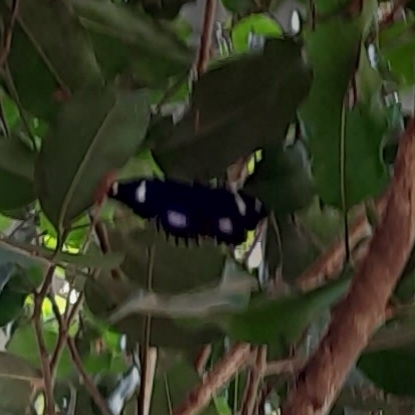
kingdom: Animalia
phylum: Arthropoda
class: Insecta
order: Lepidoptera
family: Nymphalidae
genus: Hypolimnas
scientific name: Hypolimnas bolina
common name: Great eggfly
